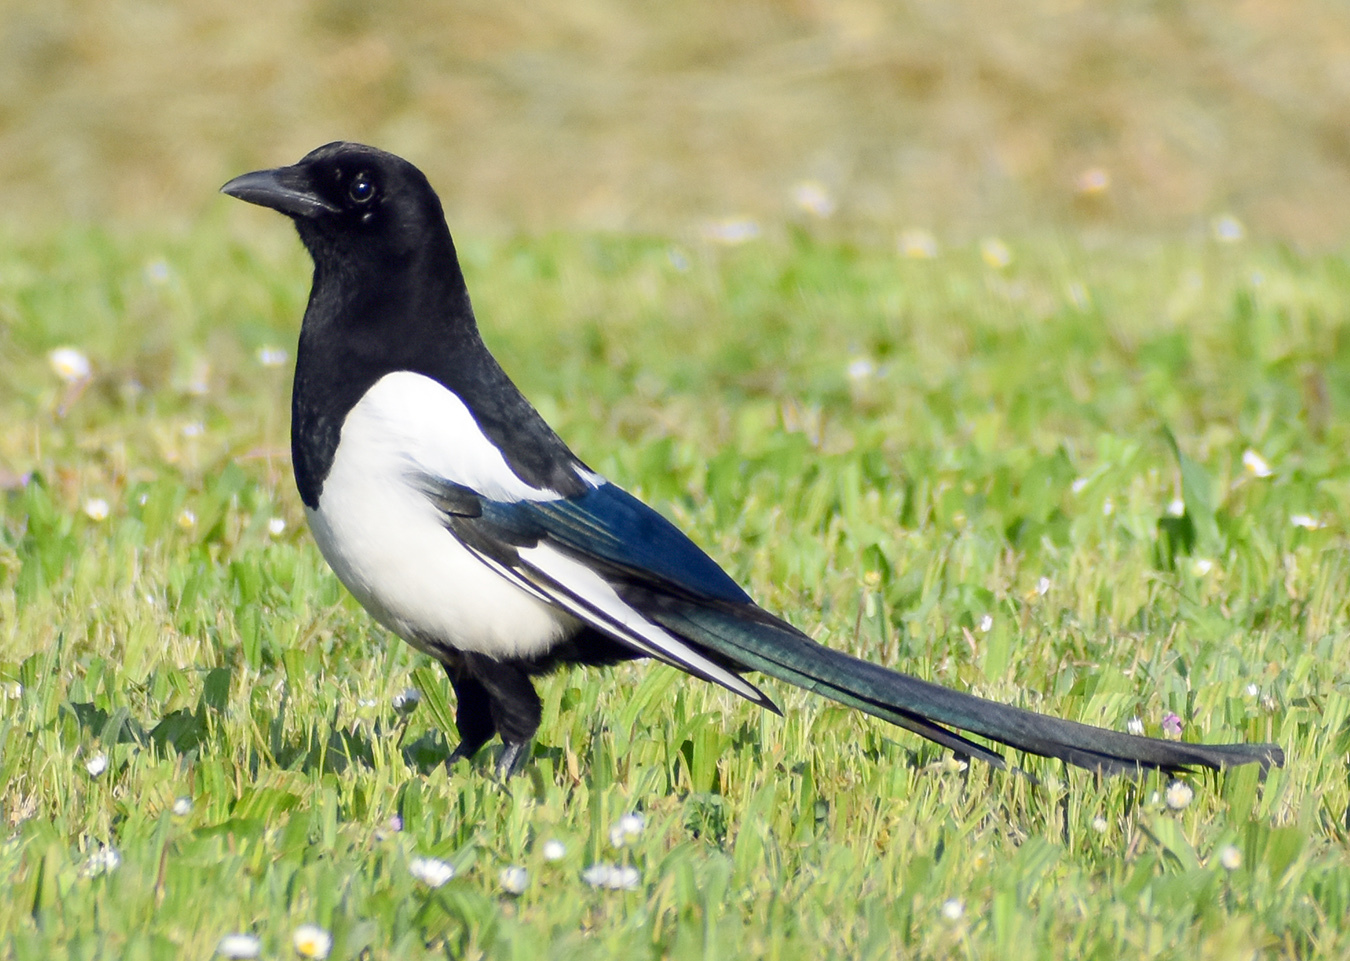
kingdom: Animalia
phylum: Chordata
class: Aves
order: Passeriformes
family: Corvidae
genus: Pica
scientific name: Pica pica
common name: Eurasian magpie
